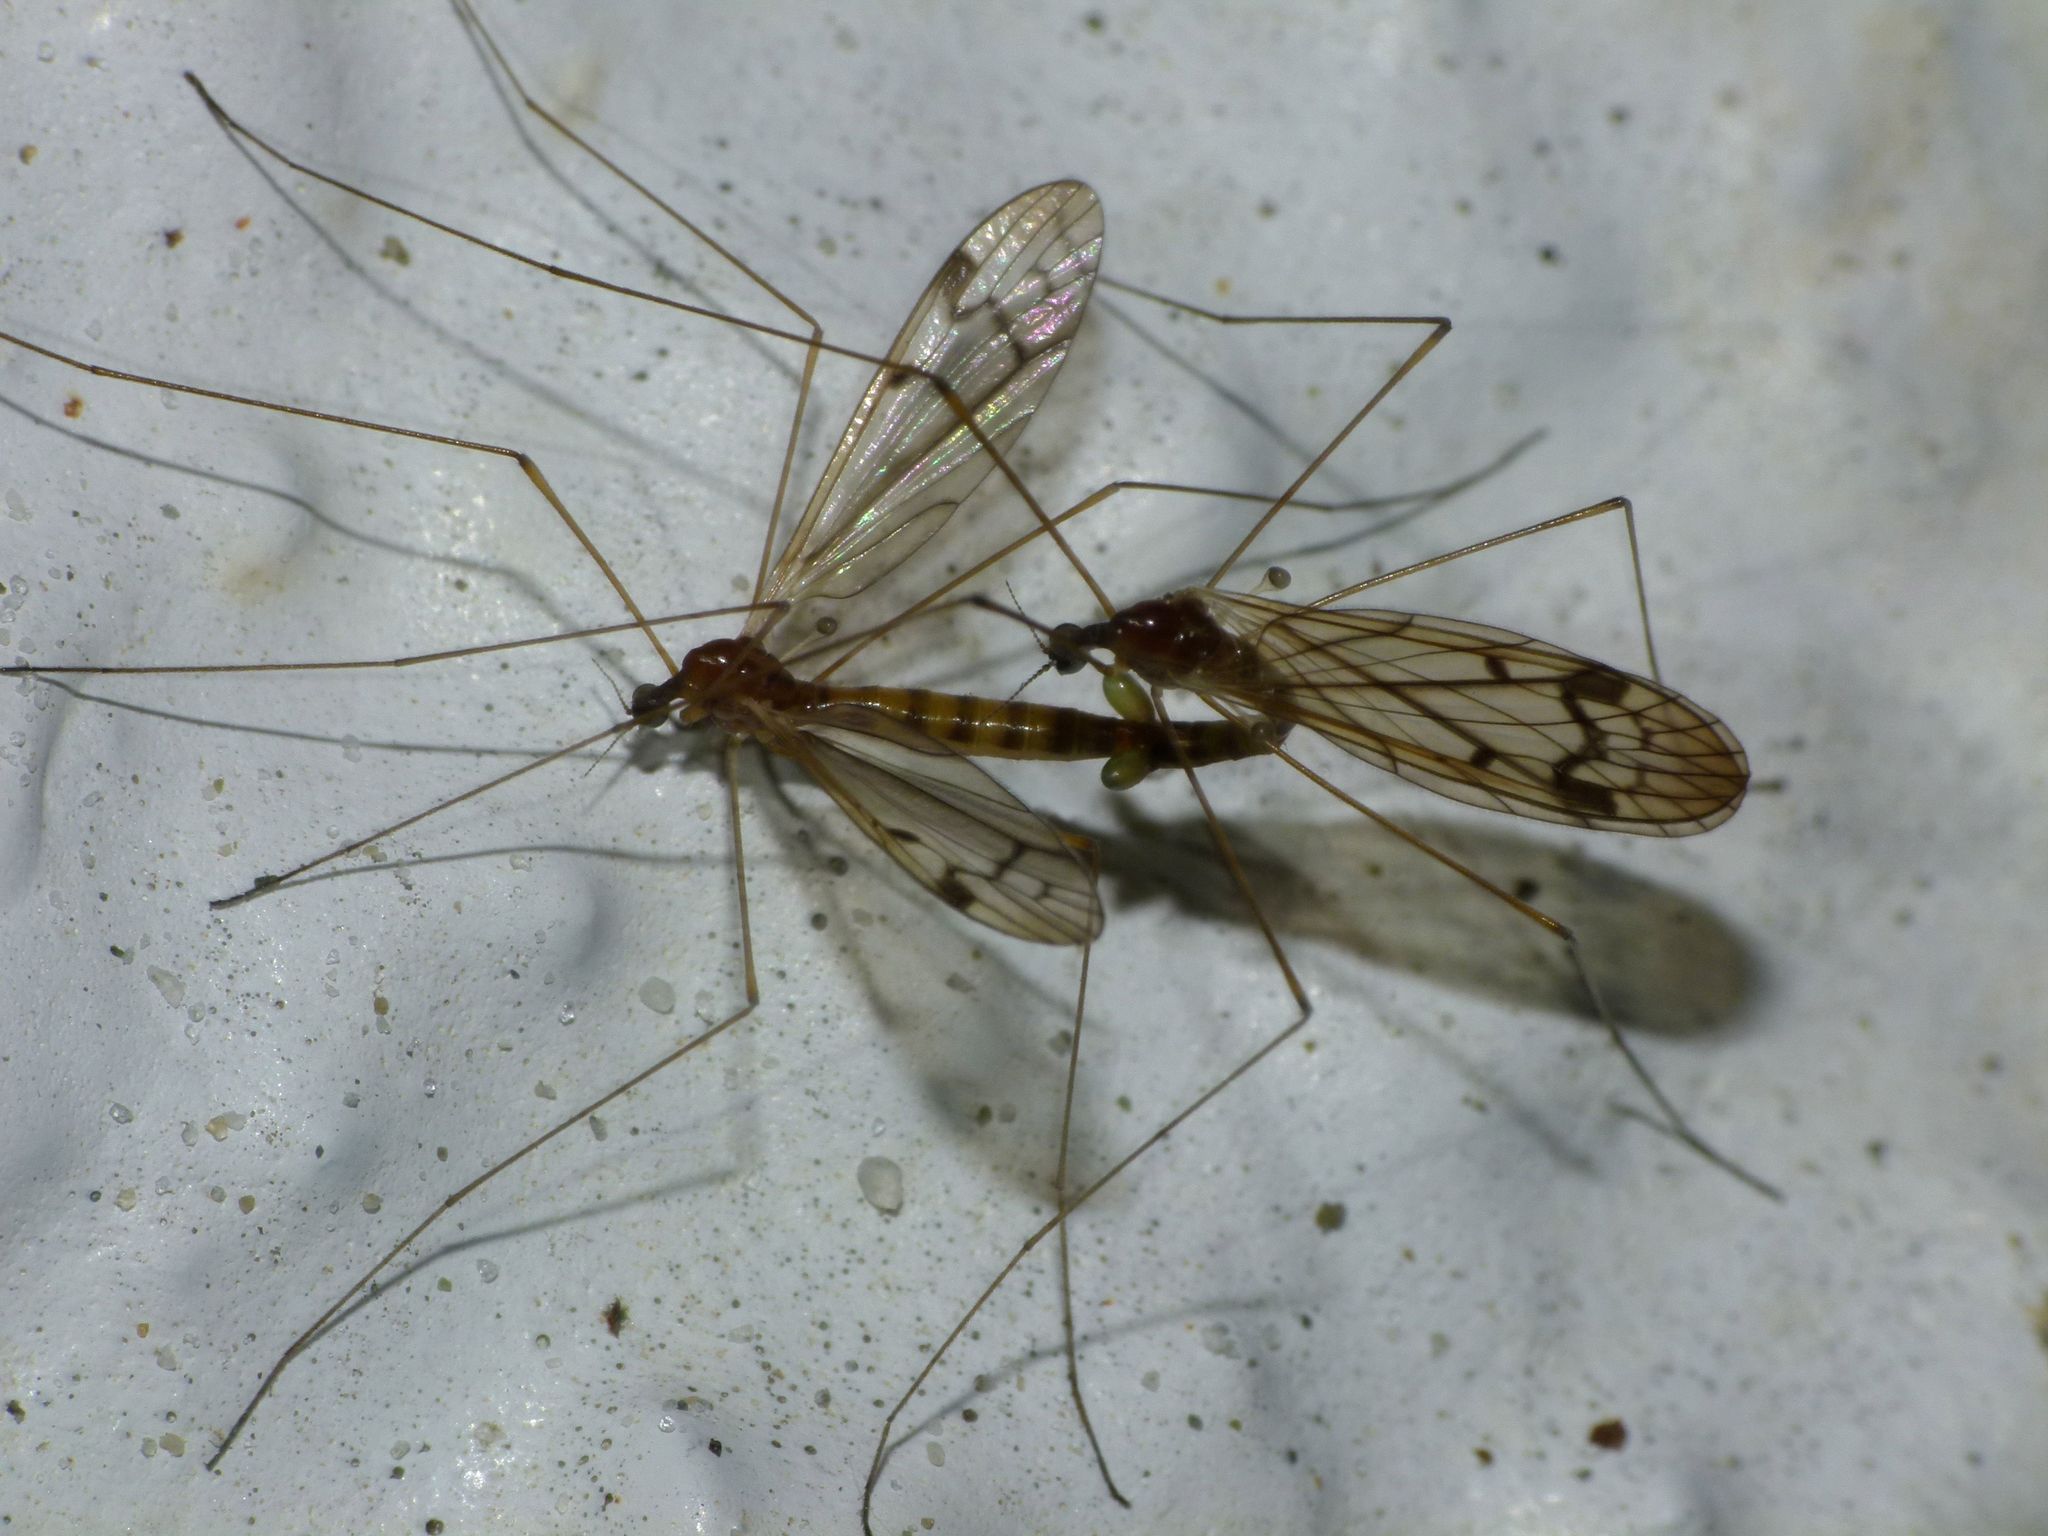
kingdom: Animalia
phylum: Arthropoda
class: Insecta
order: Diptera
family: Limoniidae
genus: Dicranomyia
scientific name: Dicranomyia crassipes
